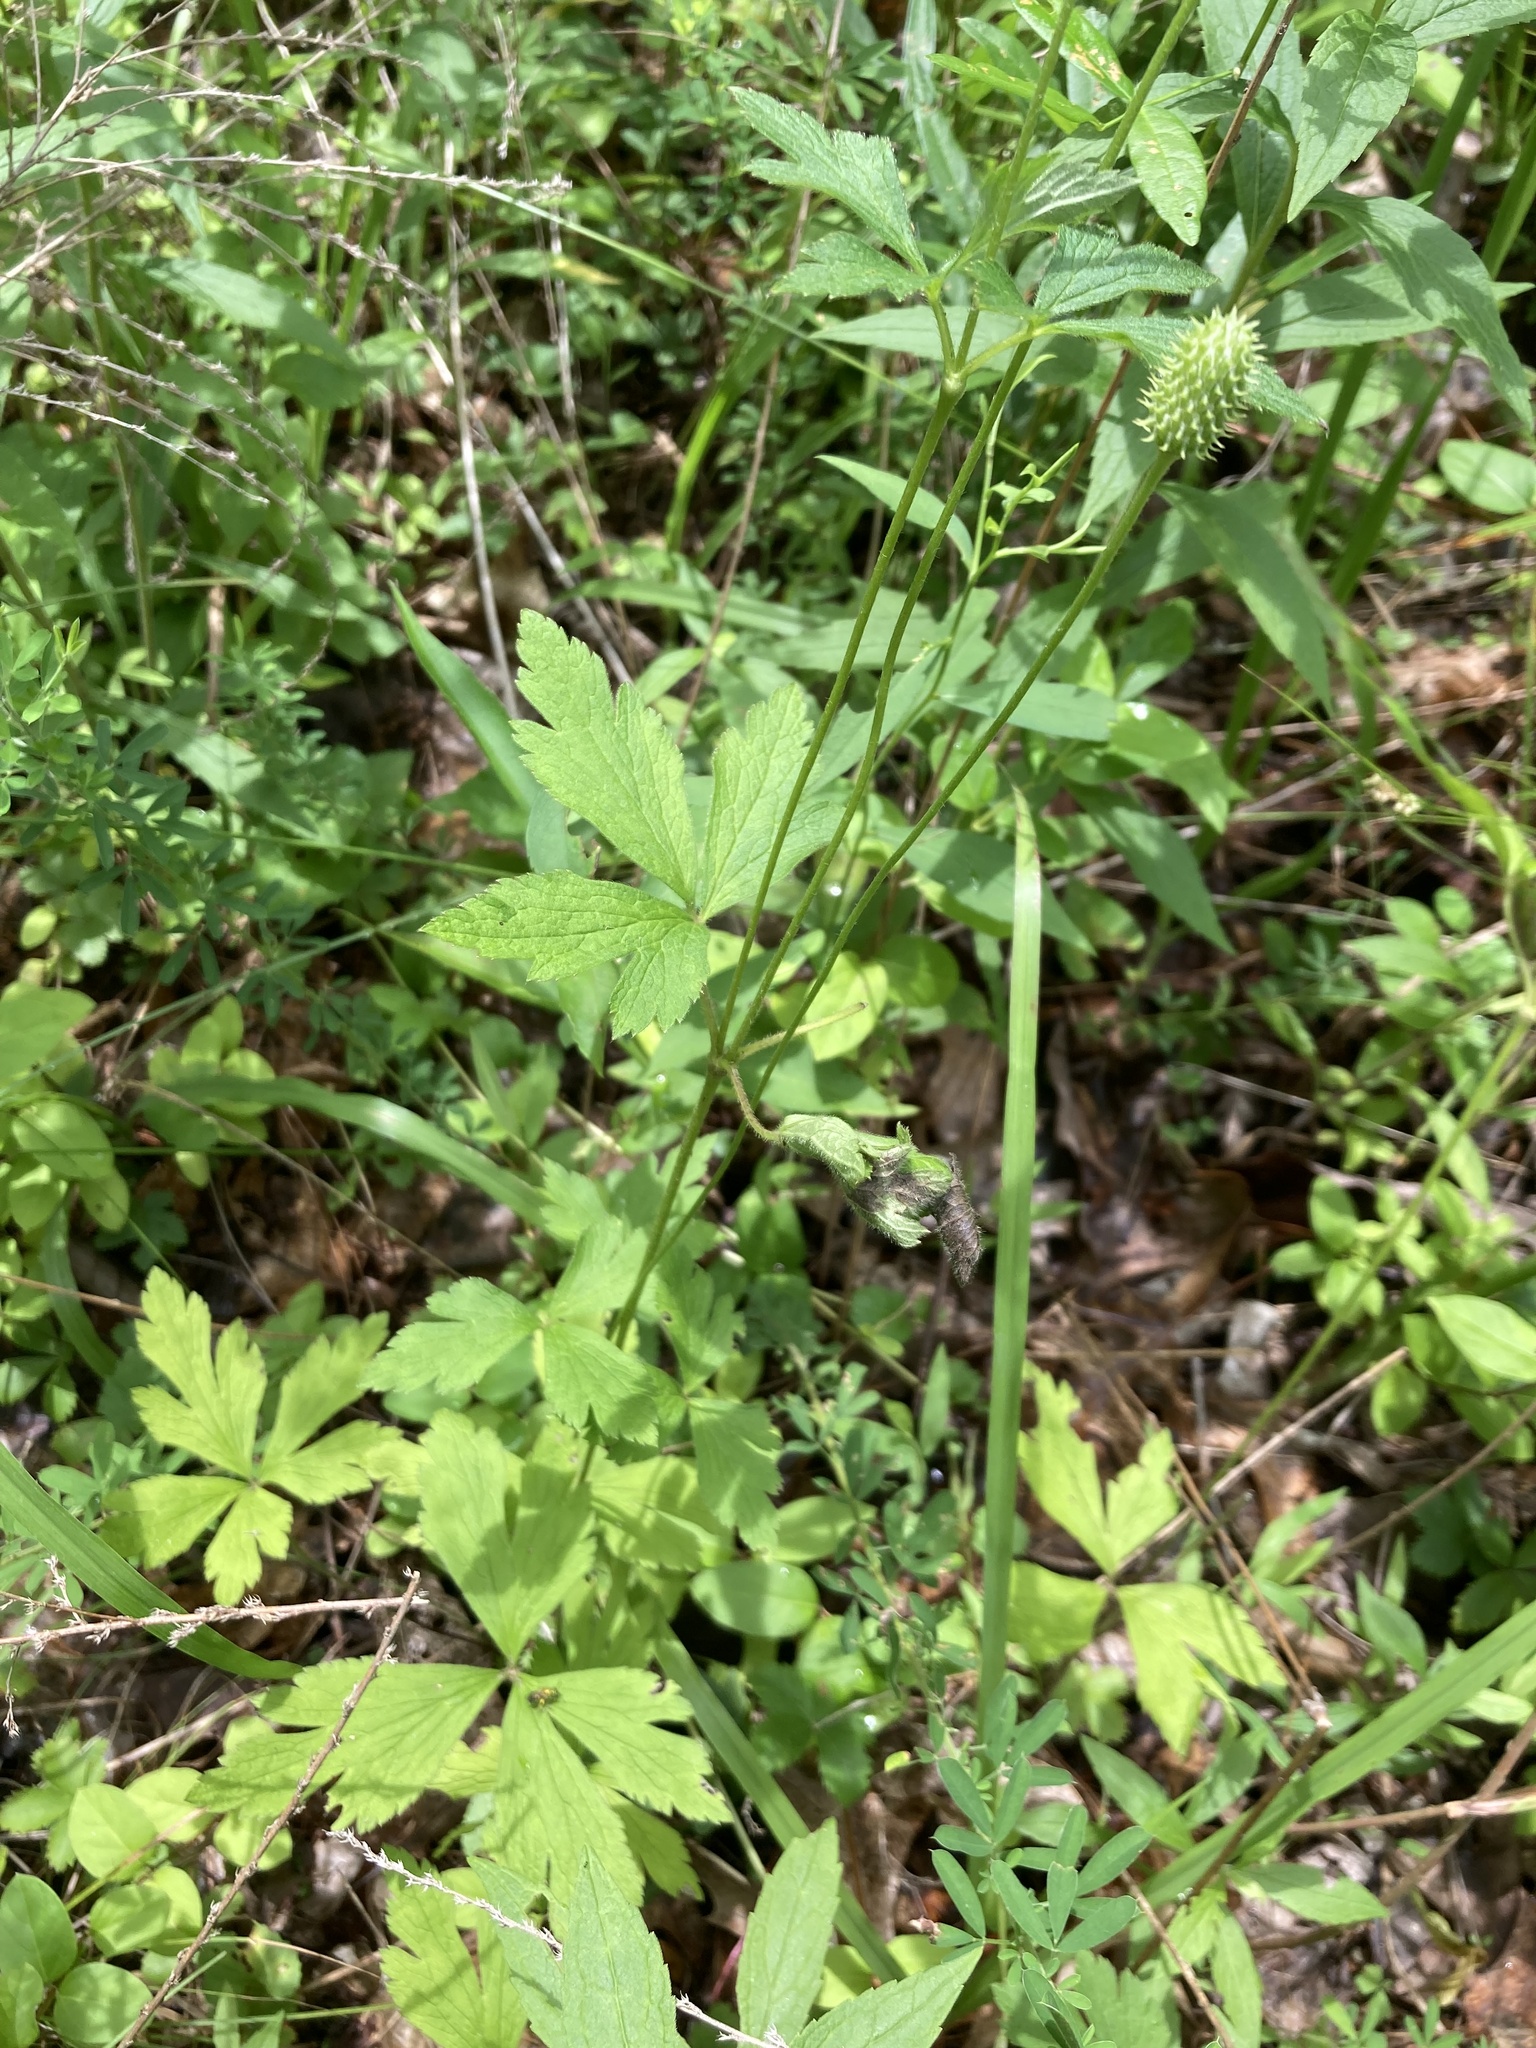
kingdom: Plantae
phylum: Tracheophyta
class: Magnoliopsida
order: Ranunculales
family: Ranunculaceae
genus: Anemone
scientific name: Anemone virginiana
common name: Tall anemone
